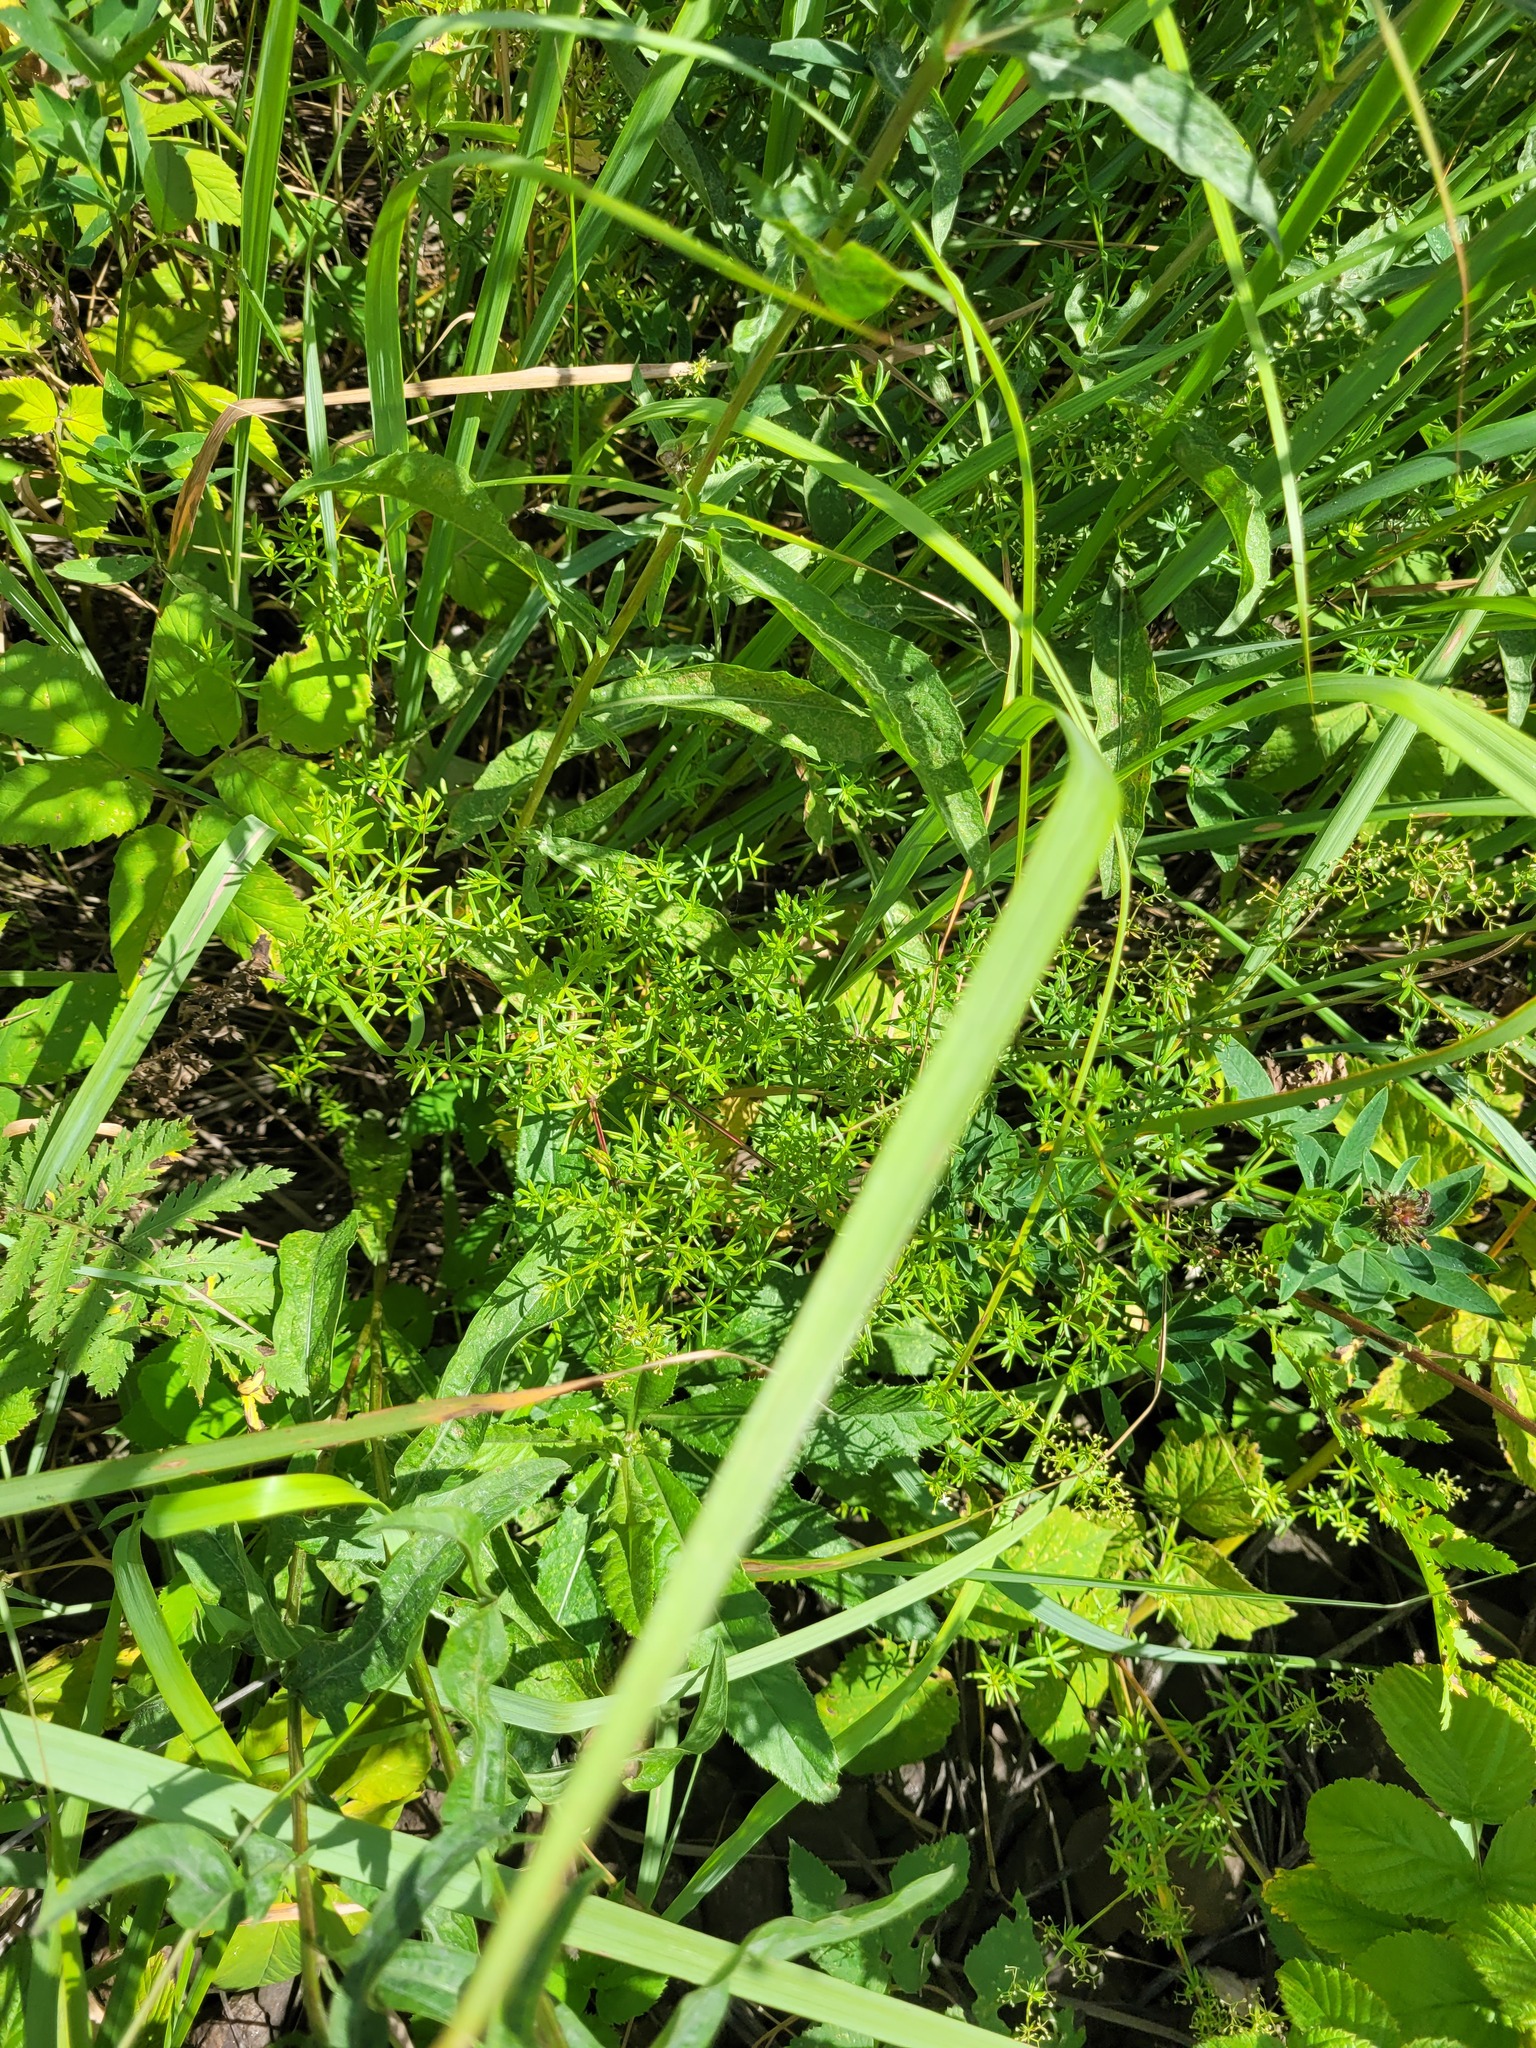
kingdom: Plantae
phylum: Tracheophyta
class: Magnoliopsida
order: Gentianales
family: Rubiaceae
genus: Galium
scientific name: Galium mollugo
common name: Hedge bedstraw
